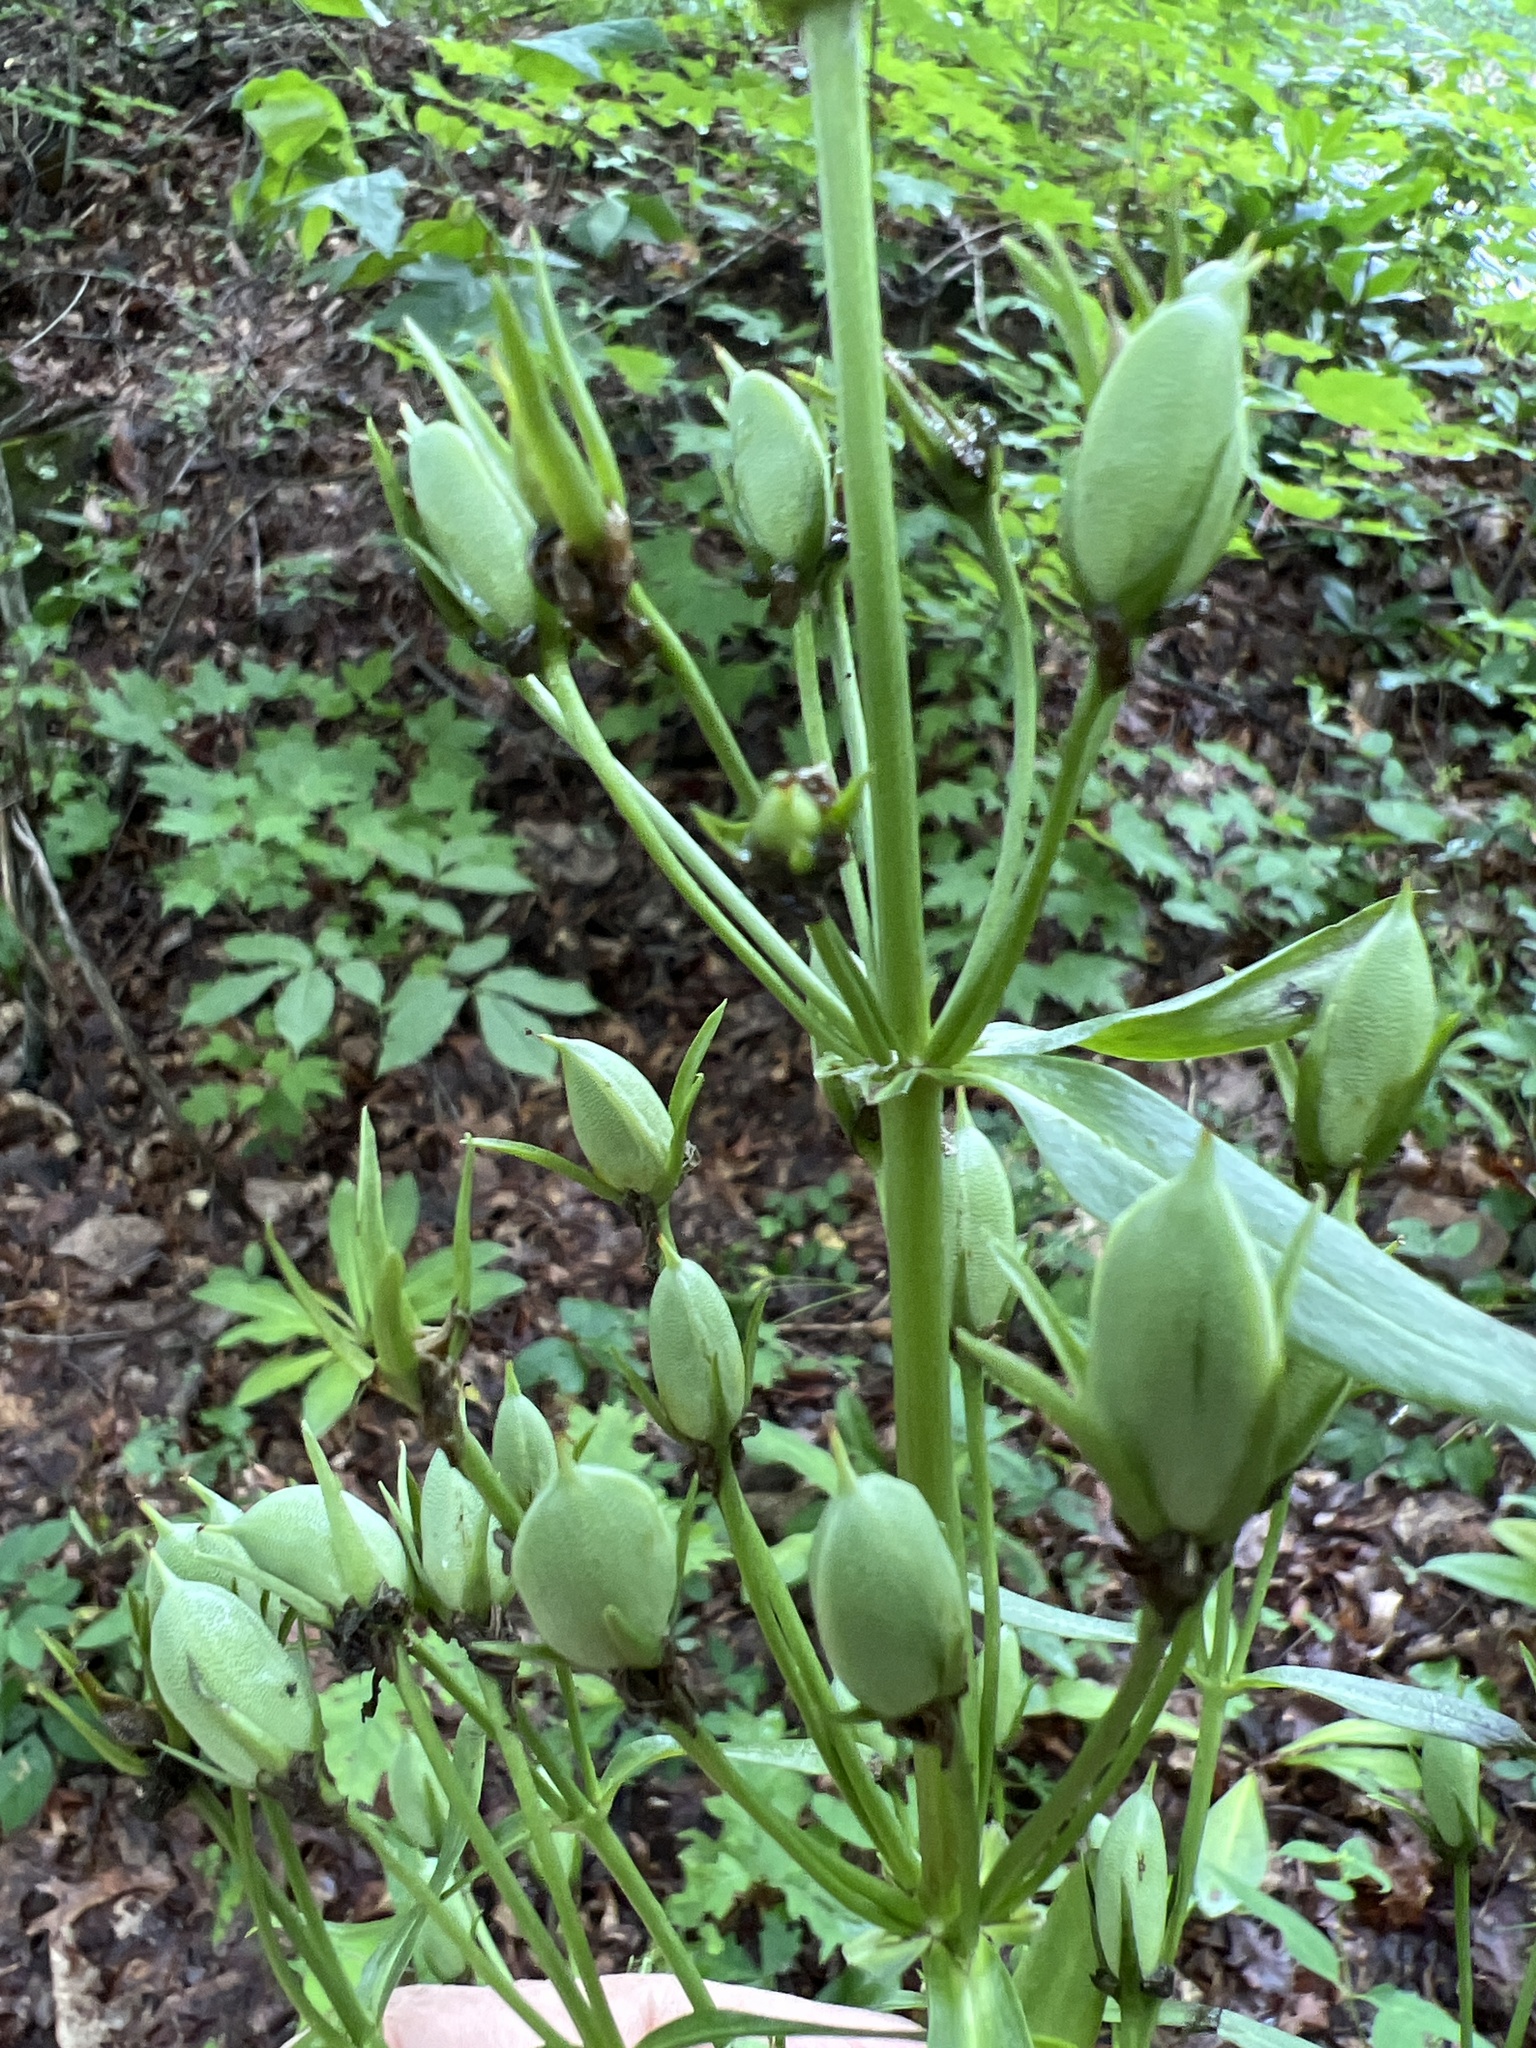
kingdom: Plantae
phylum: Tracheophyta
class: Magnoliopsida
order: Gentianales
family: Gentianaceae
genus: Frasera
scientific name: Frasera caroliniensis
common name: American columbo
